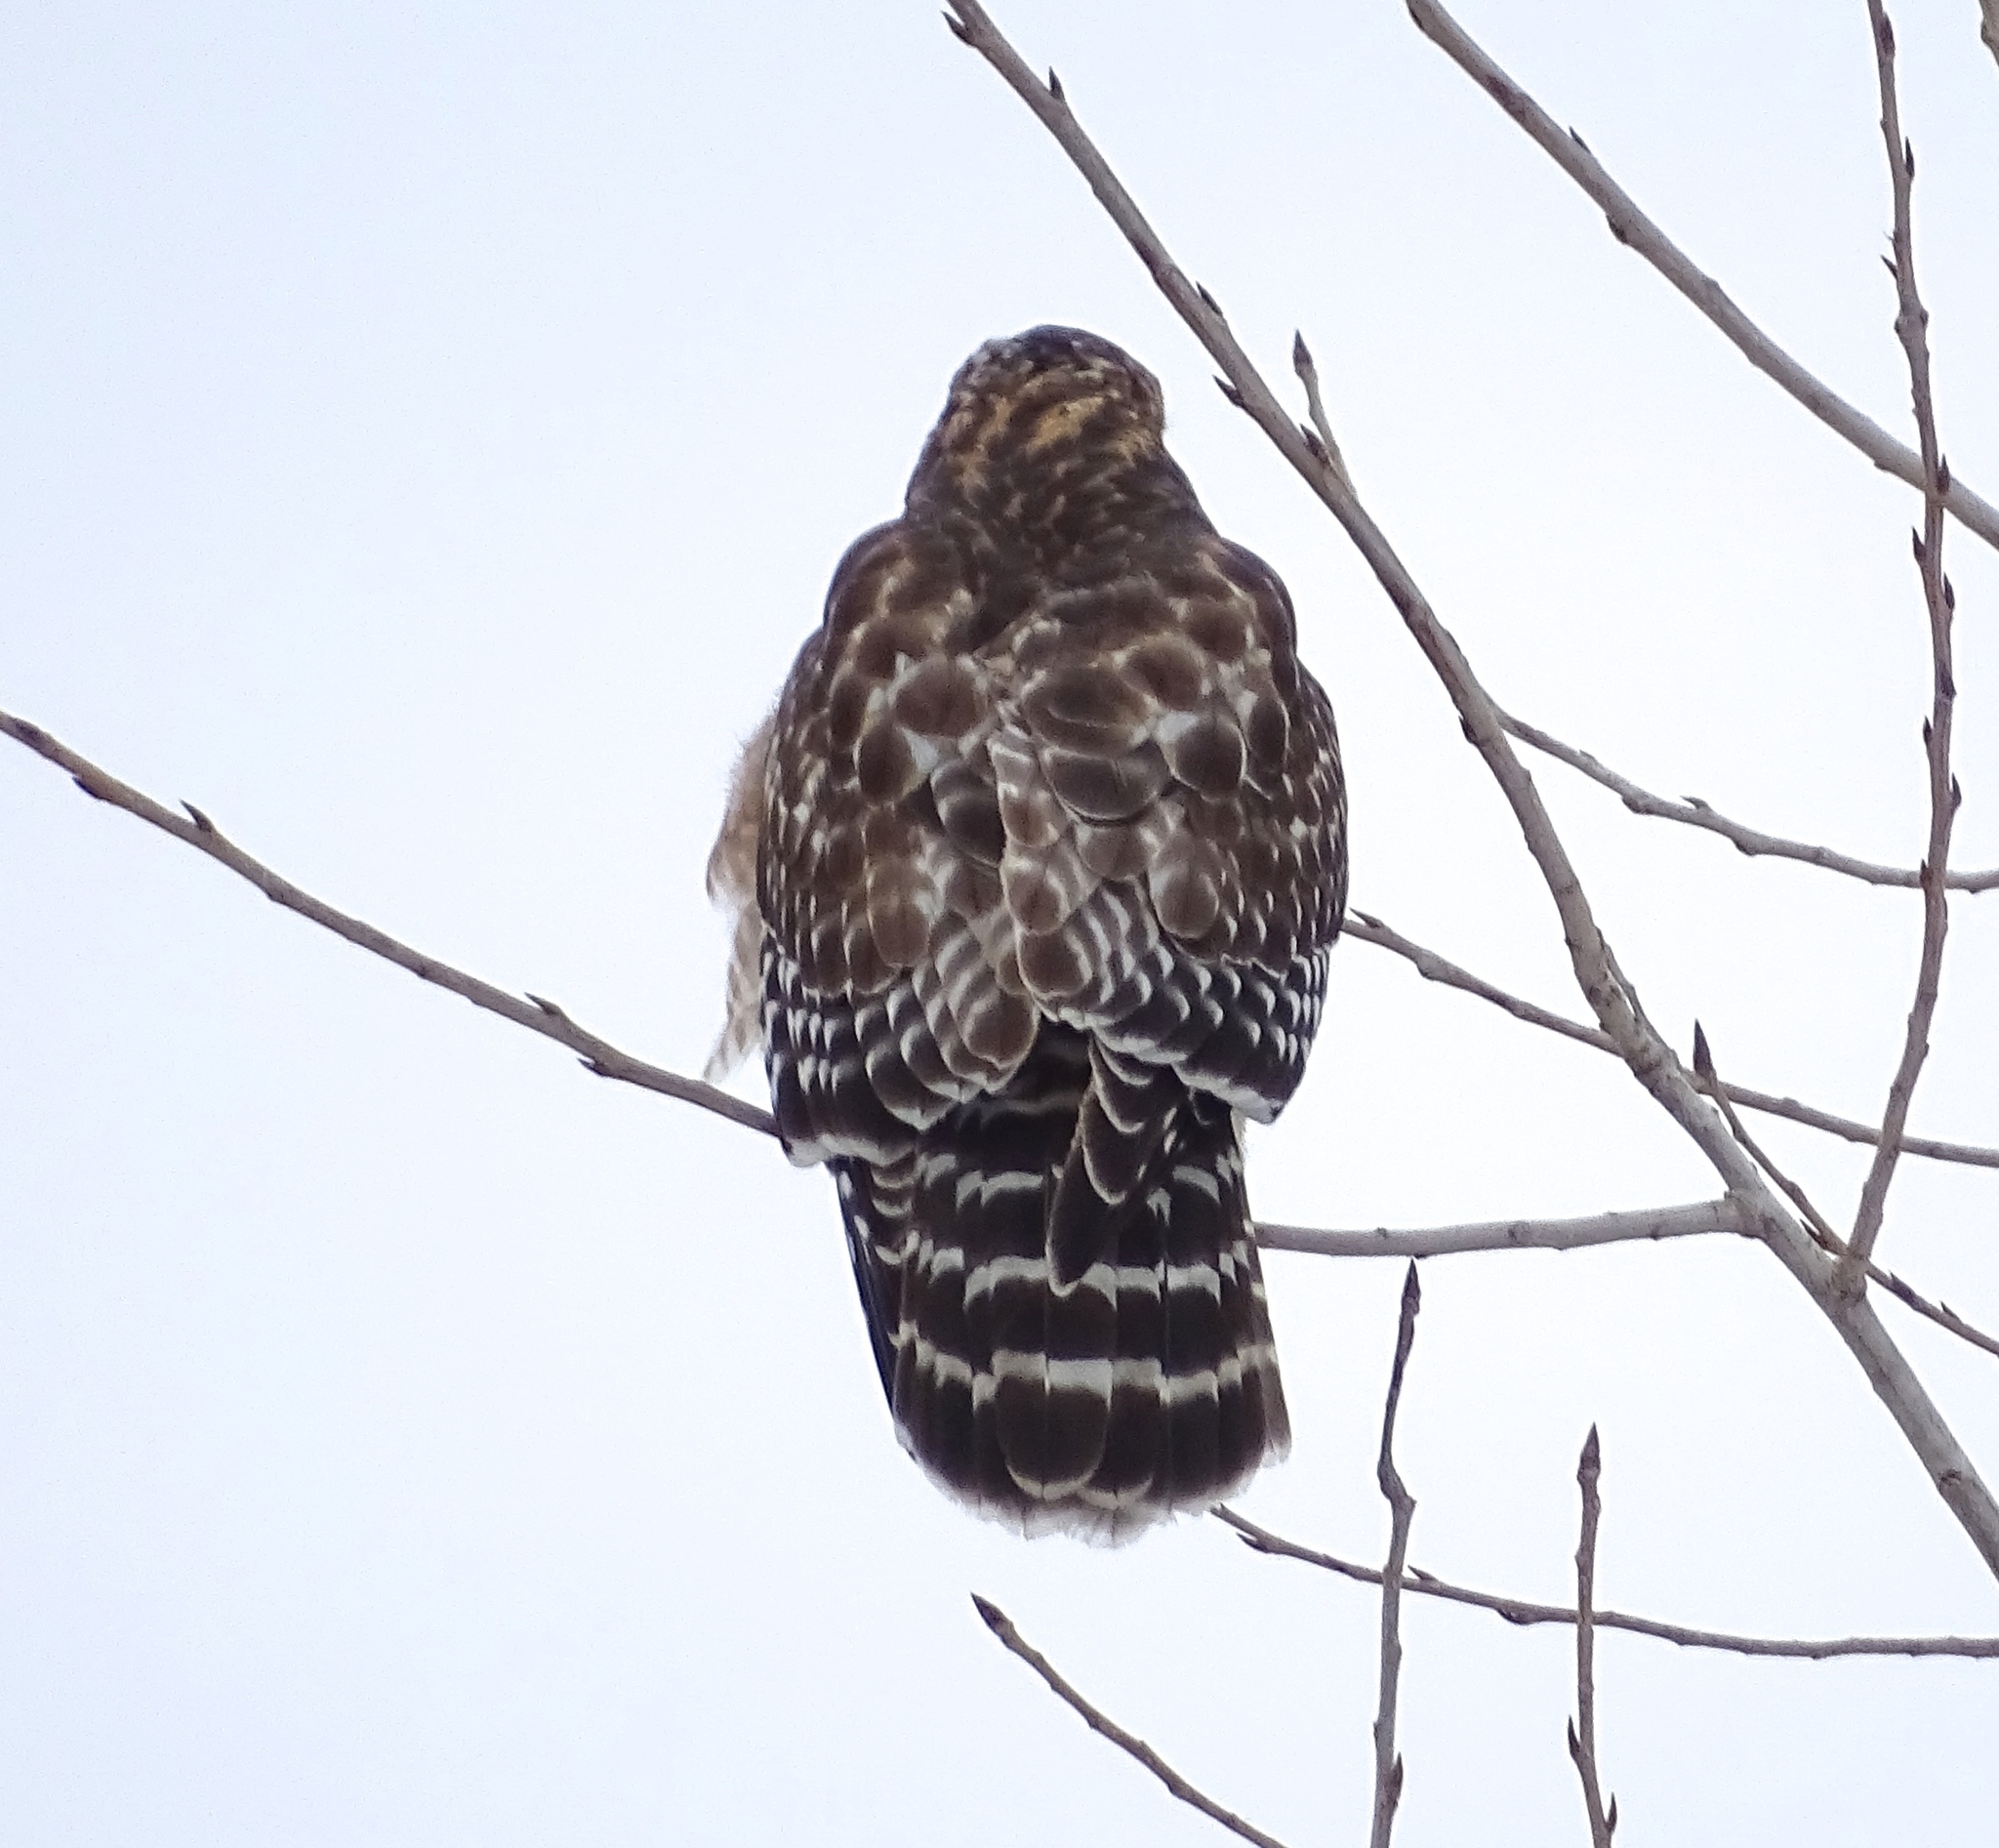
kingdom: Animalia
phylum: Chordata
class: Aves
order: Accipitriformes
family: Accipitridae
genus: Buteo
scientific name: Buteo lineatus
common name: Red-shouldered hawk
